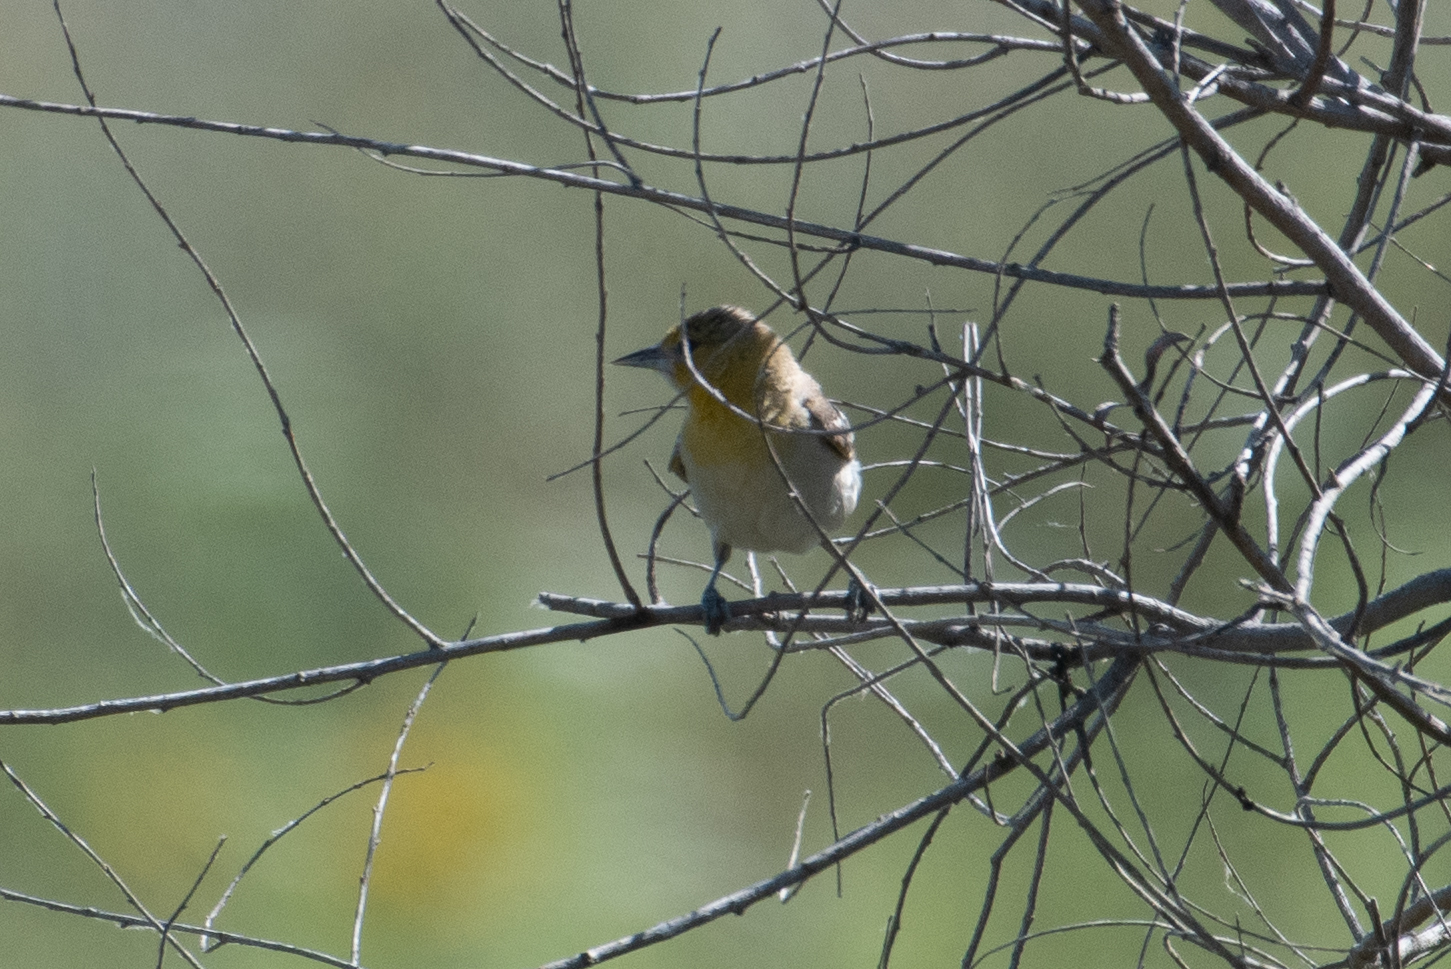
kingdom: Animalia
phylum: Chordata
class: Aves
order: Passeriformes
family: Icteridae
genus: Icterus
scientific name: Icterus bullockii
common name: Bullock's oriole
